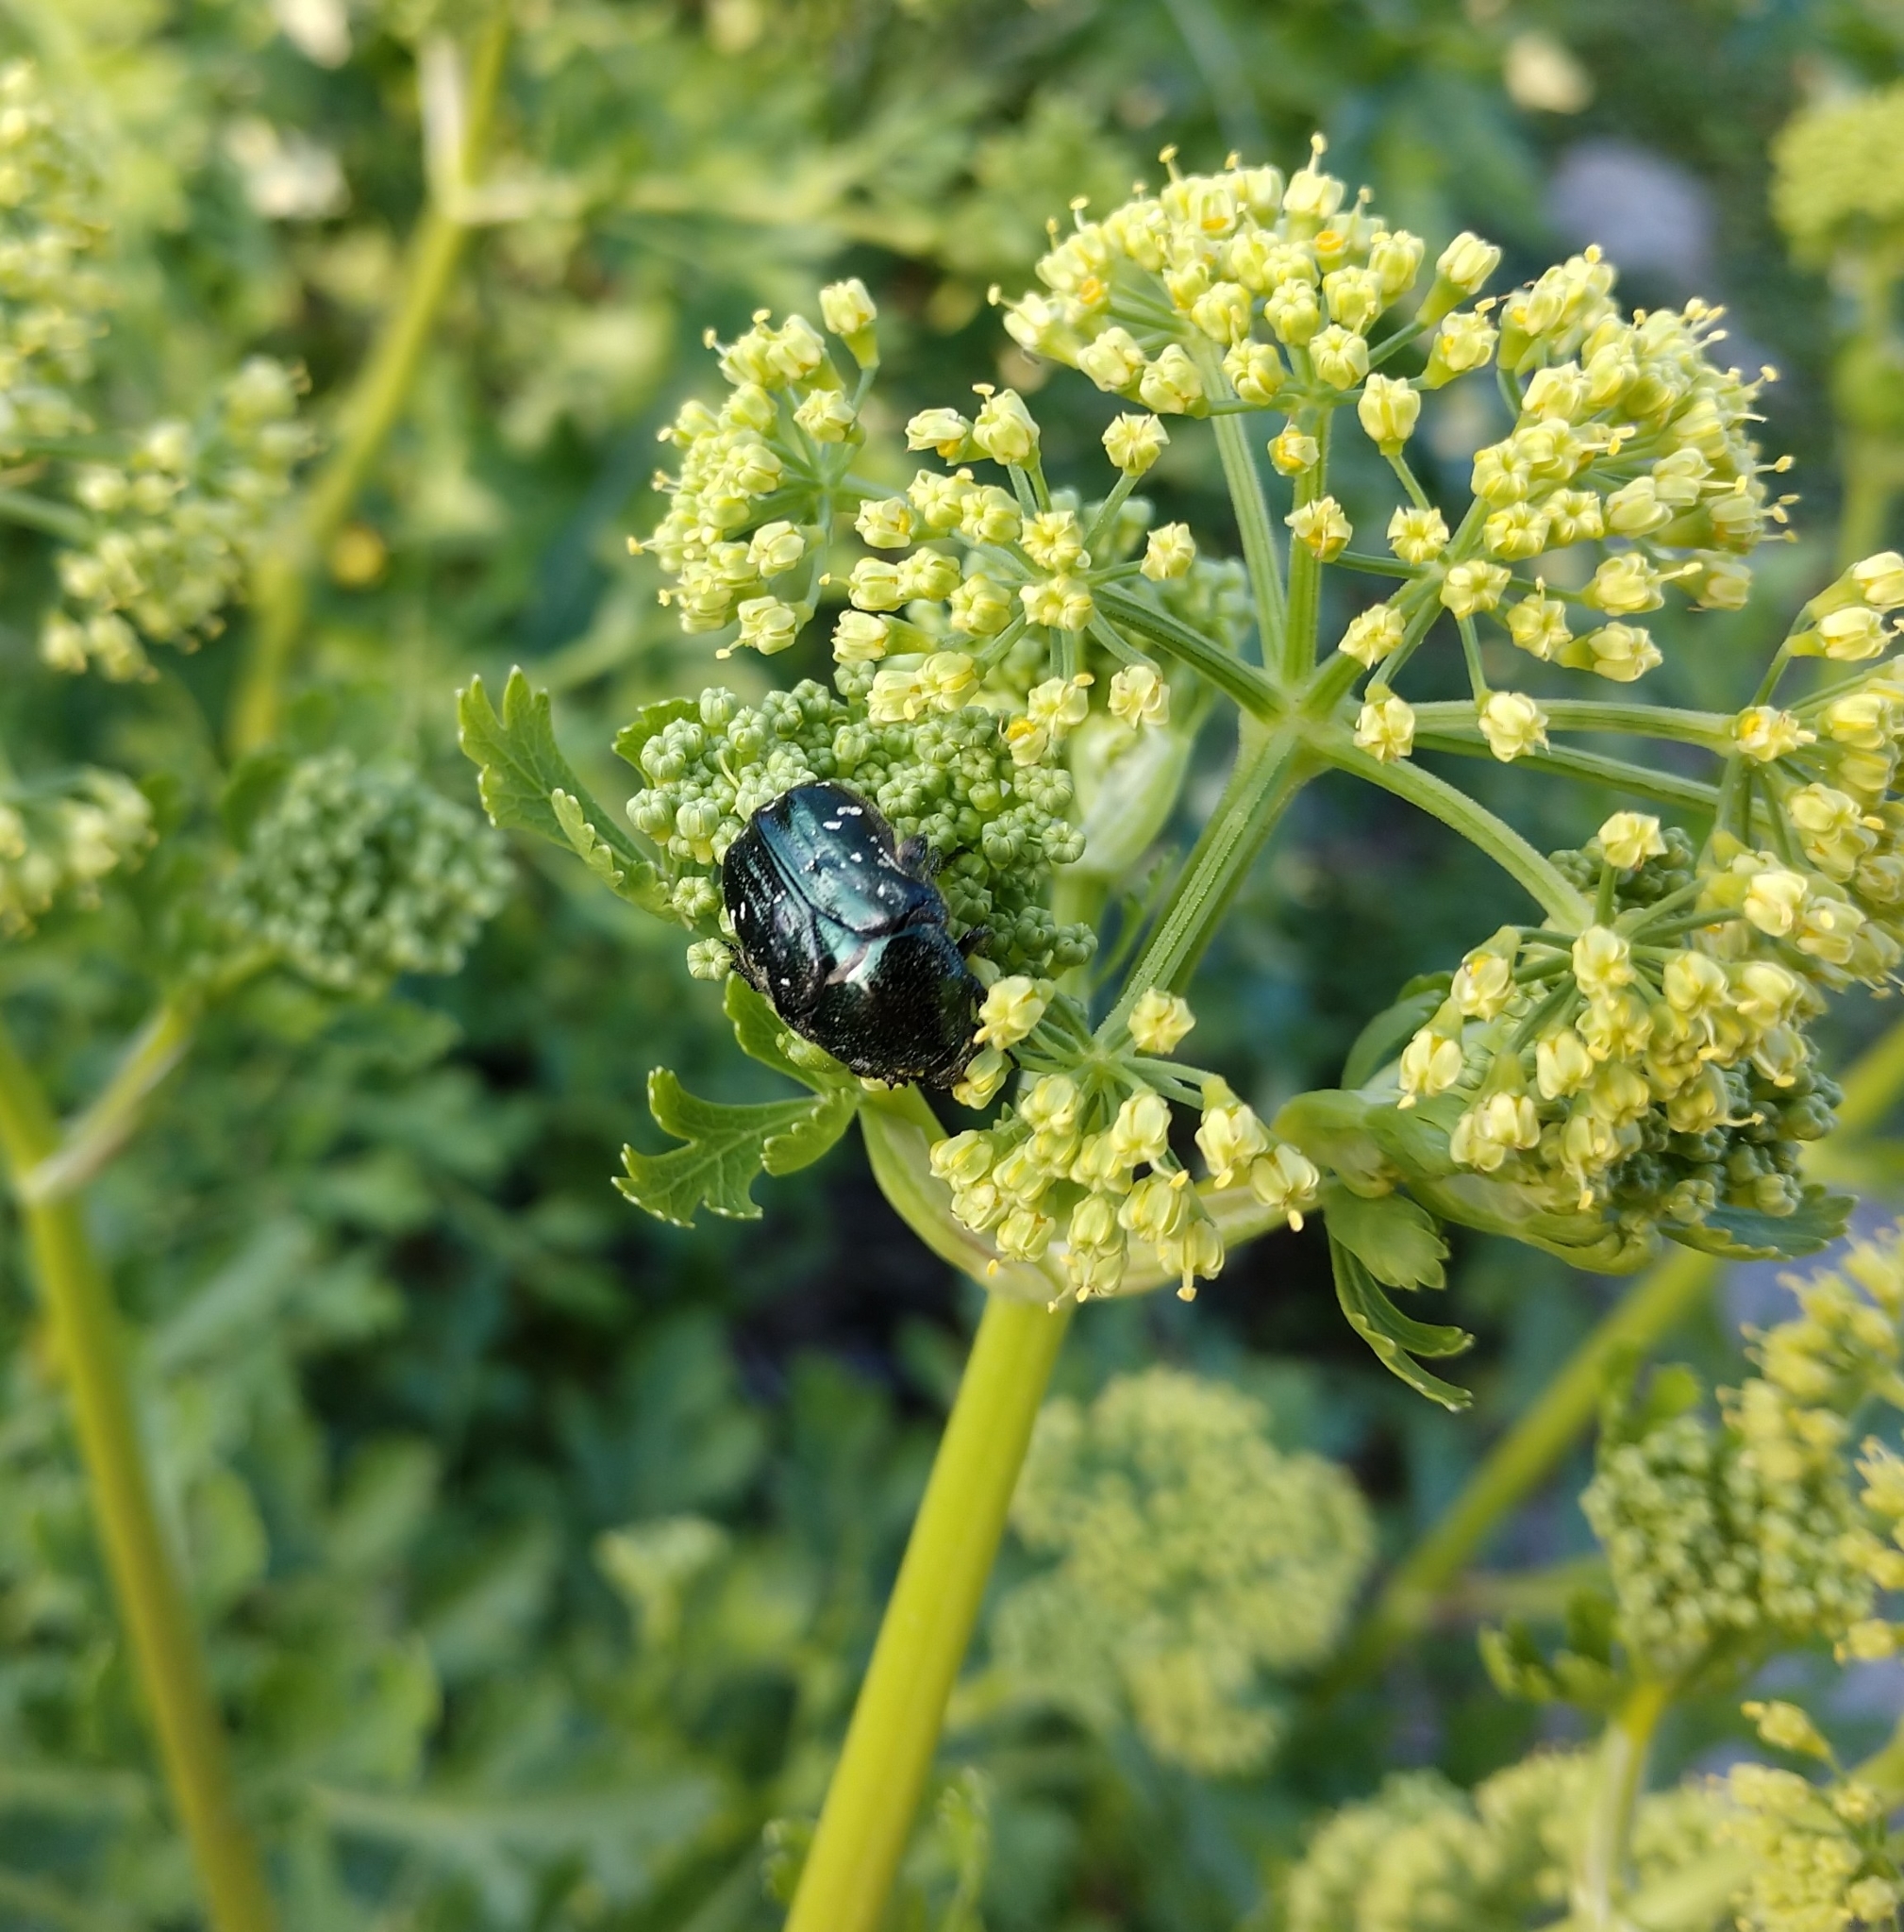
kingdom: Animalia
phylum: Arthropoda
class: Insecta
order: Coleoptera
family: Scarabaeidae
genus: Euphoria
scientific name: Euphoria sepulcralis
